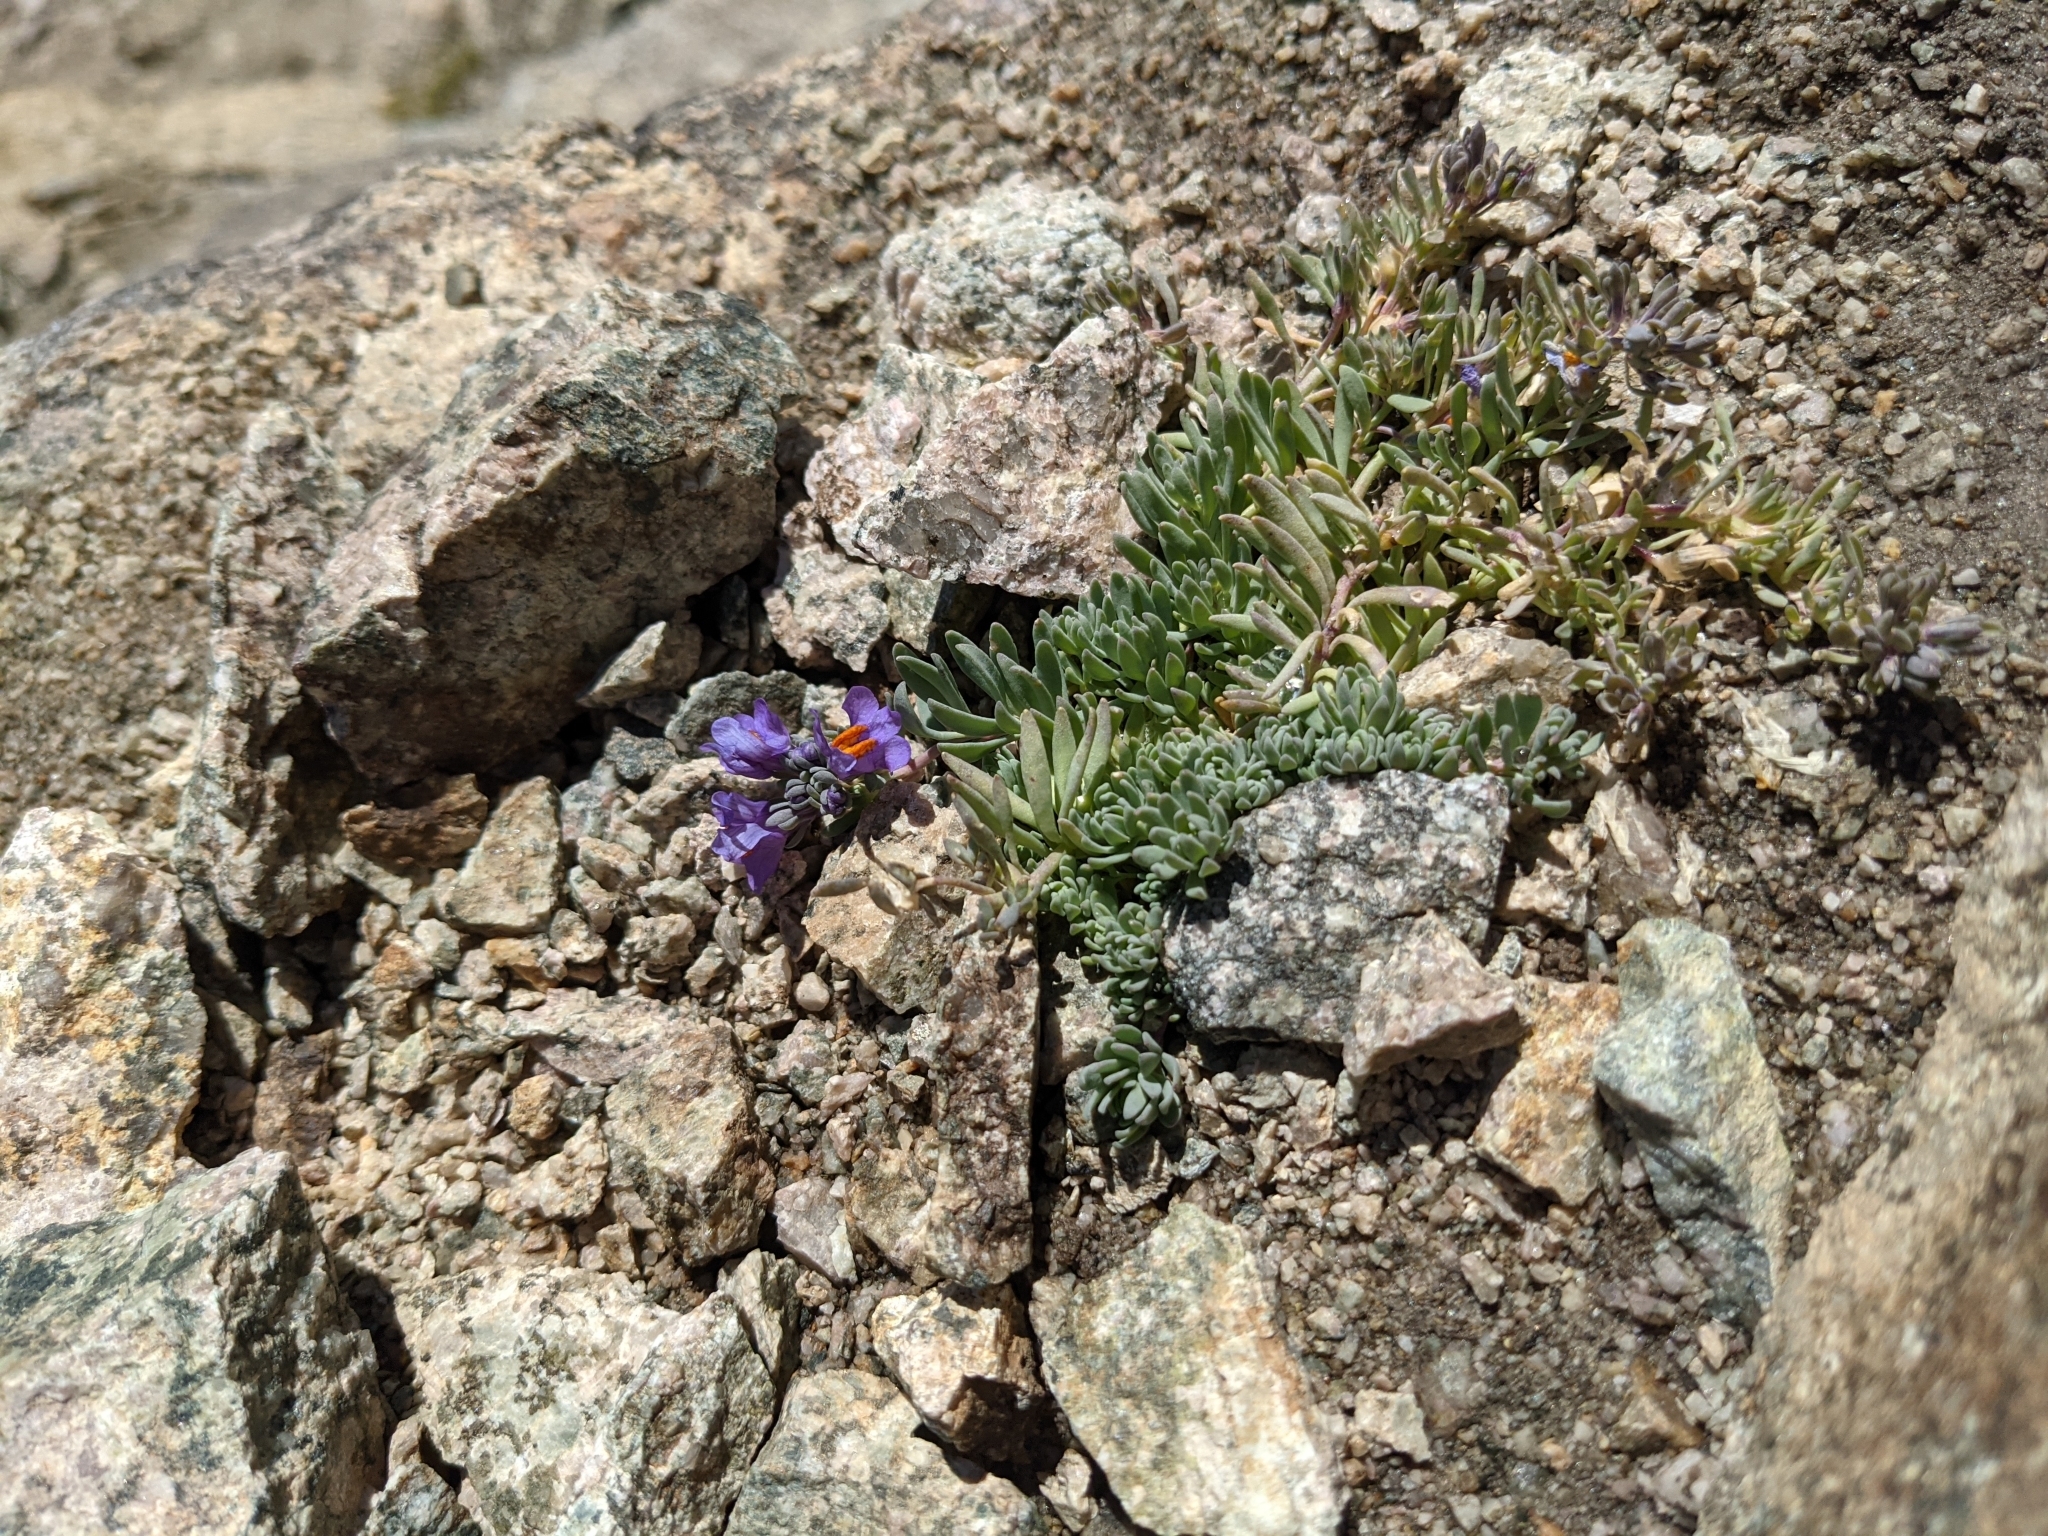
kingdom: Plantae
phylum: Tracheophyta
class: Magnoliopsida
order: Lamiales
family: Plantaginaceae
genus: Linaria
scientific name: Linaria alpina
